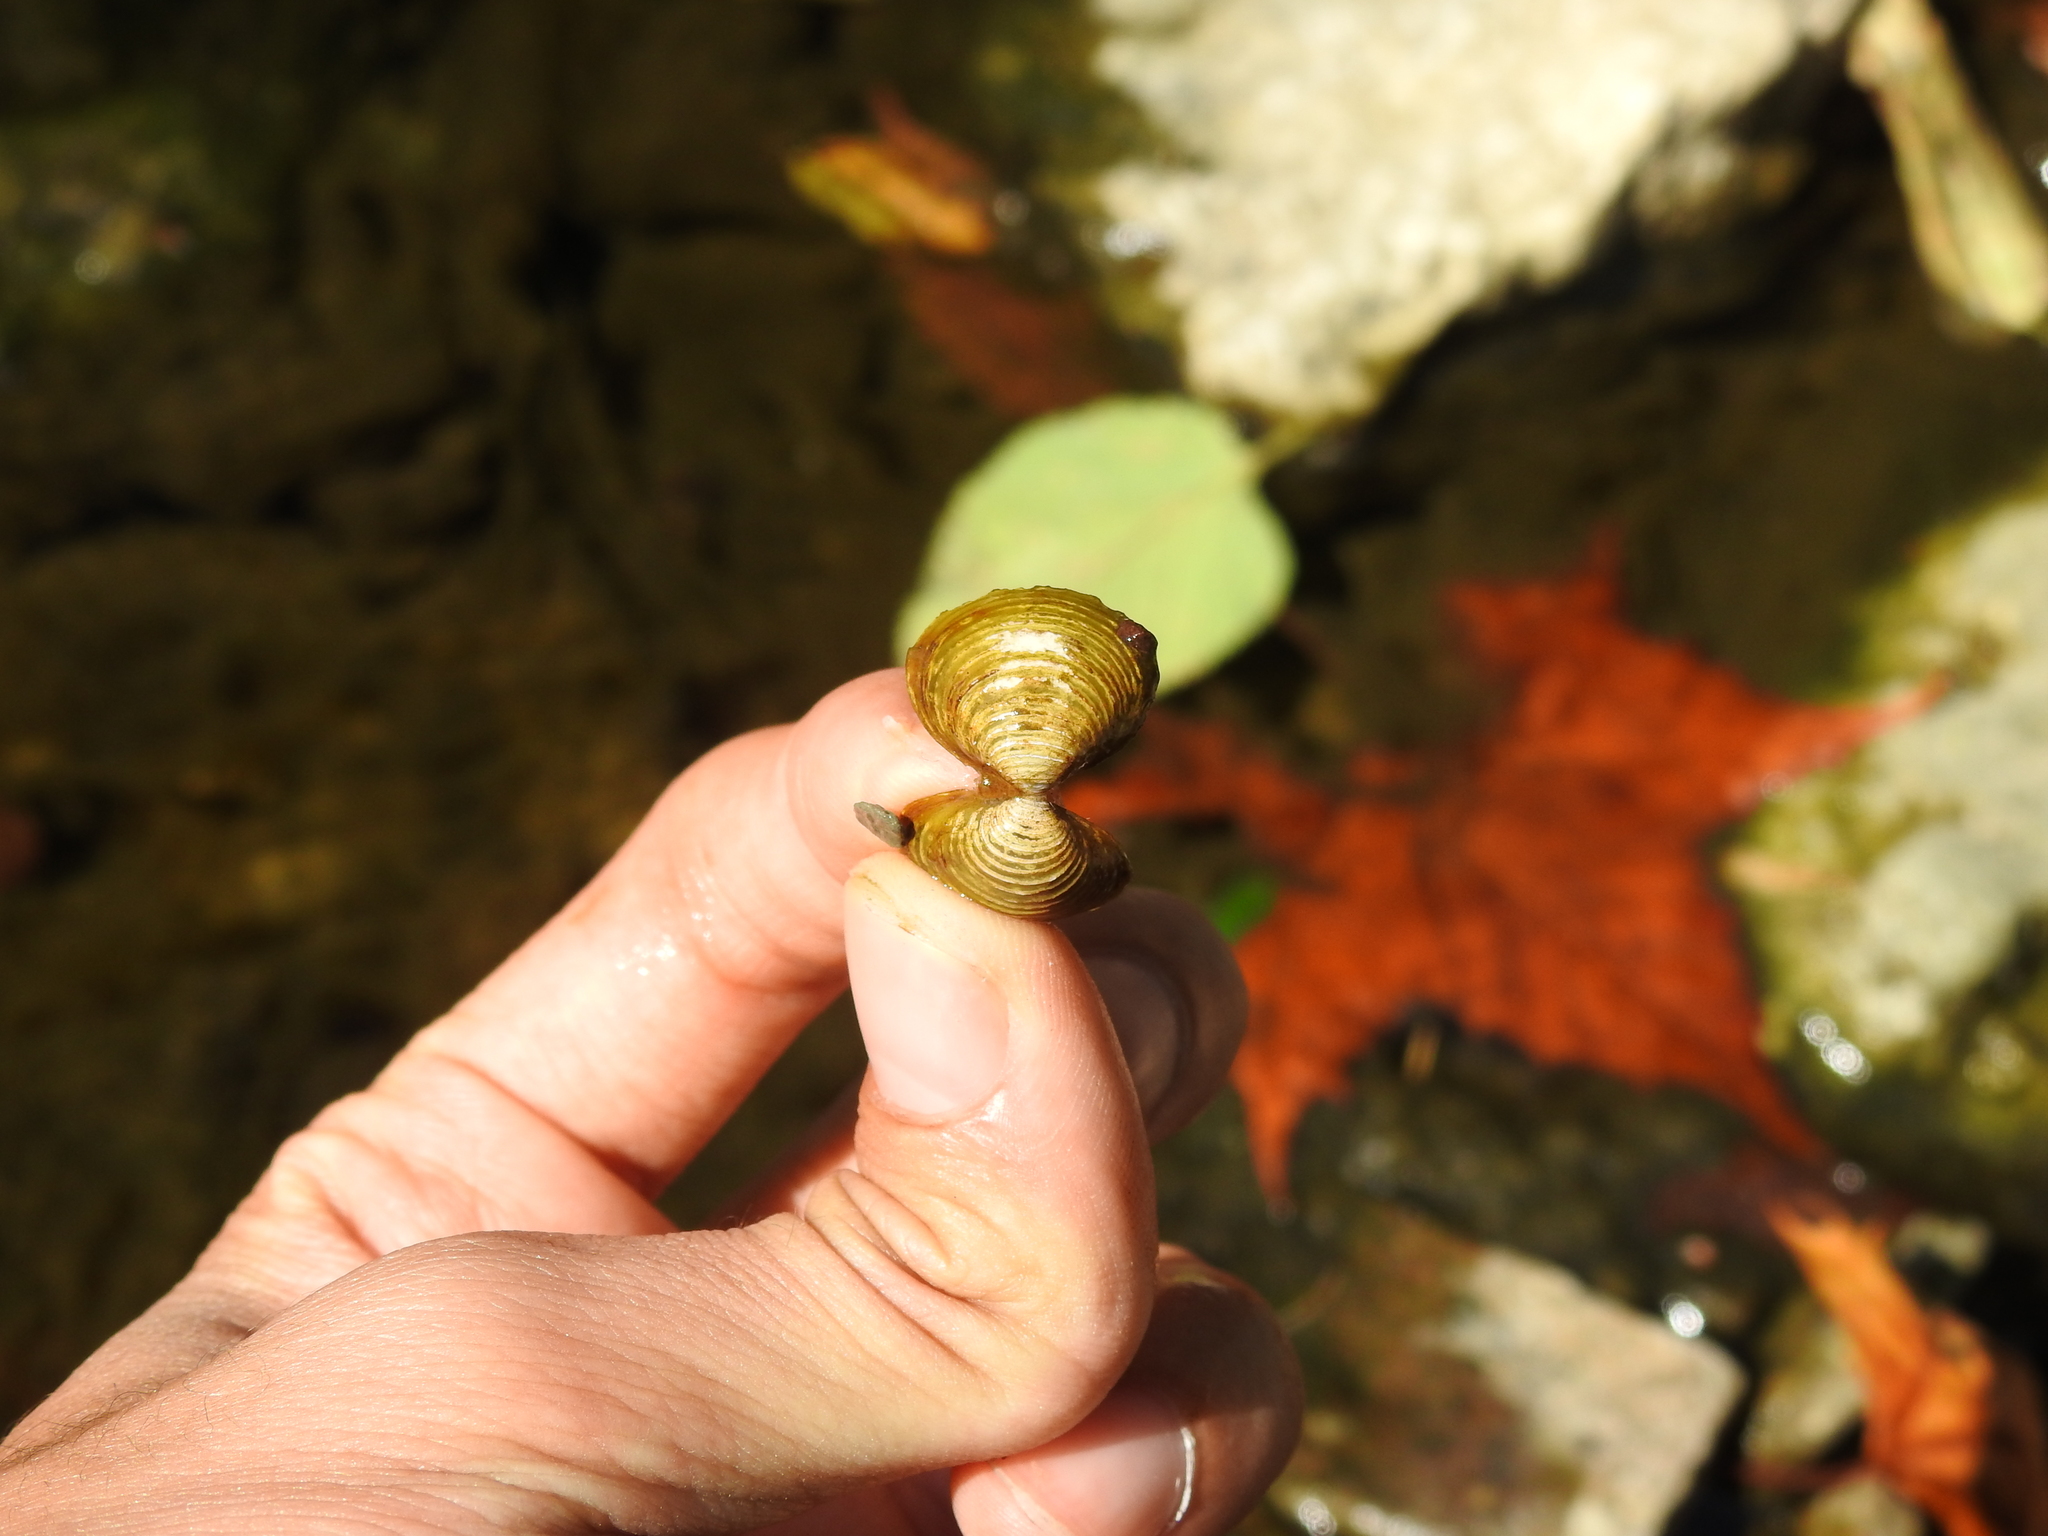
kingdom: Animalia
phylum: Mollusca
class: Bivalvia
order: Venerida
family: Cyrenidae
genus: Corbicula
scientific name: Corbicula fluminea
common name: Asian clam
